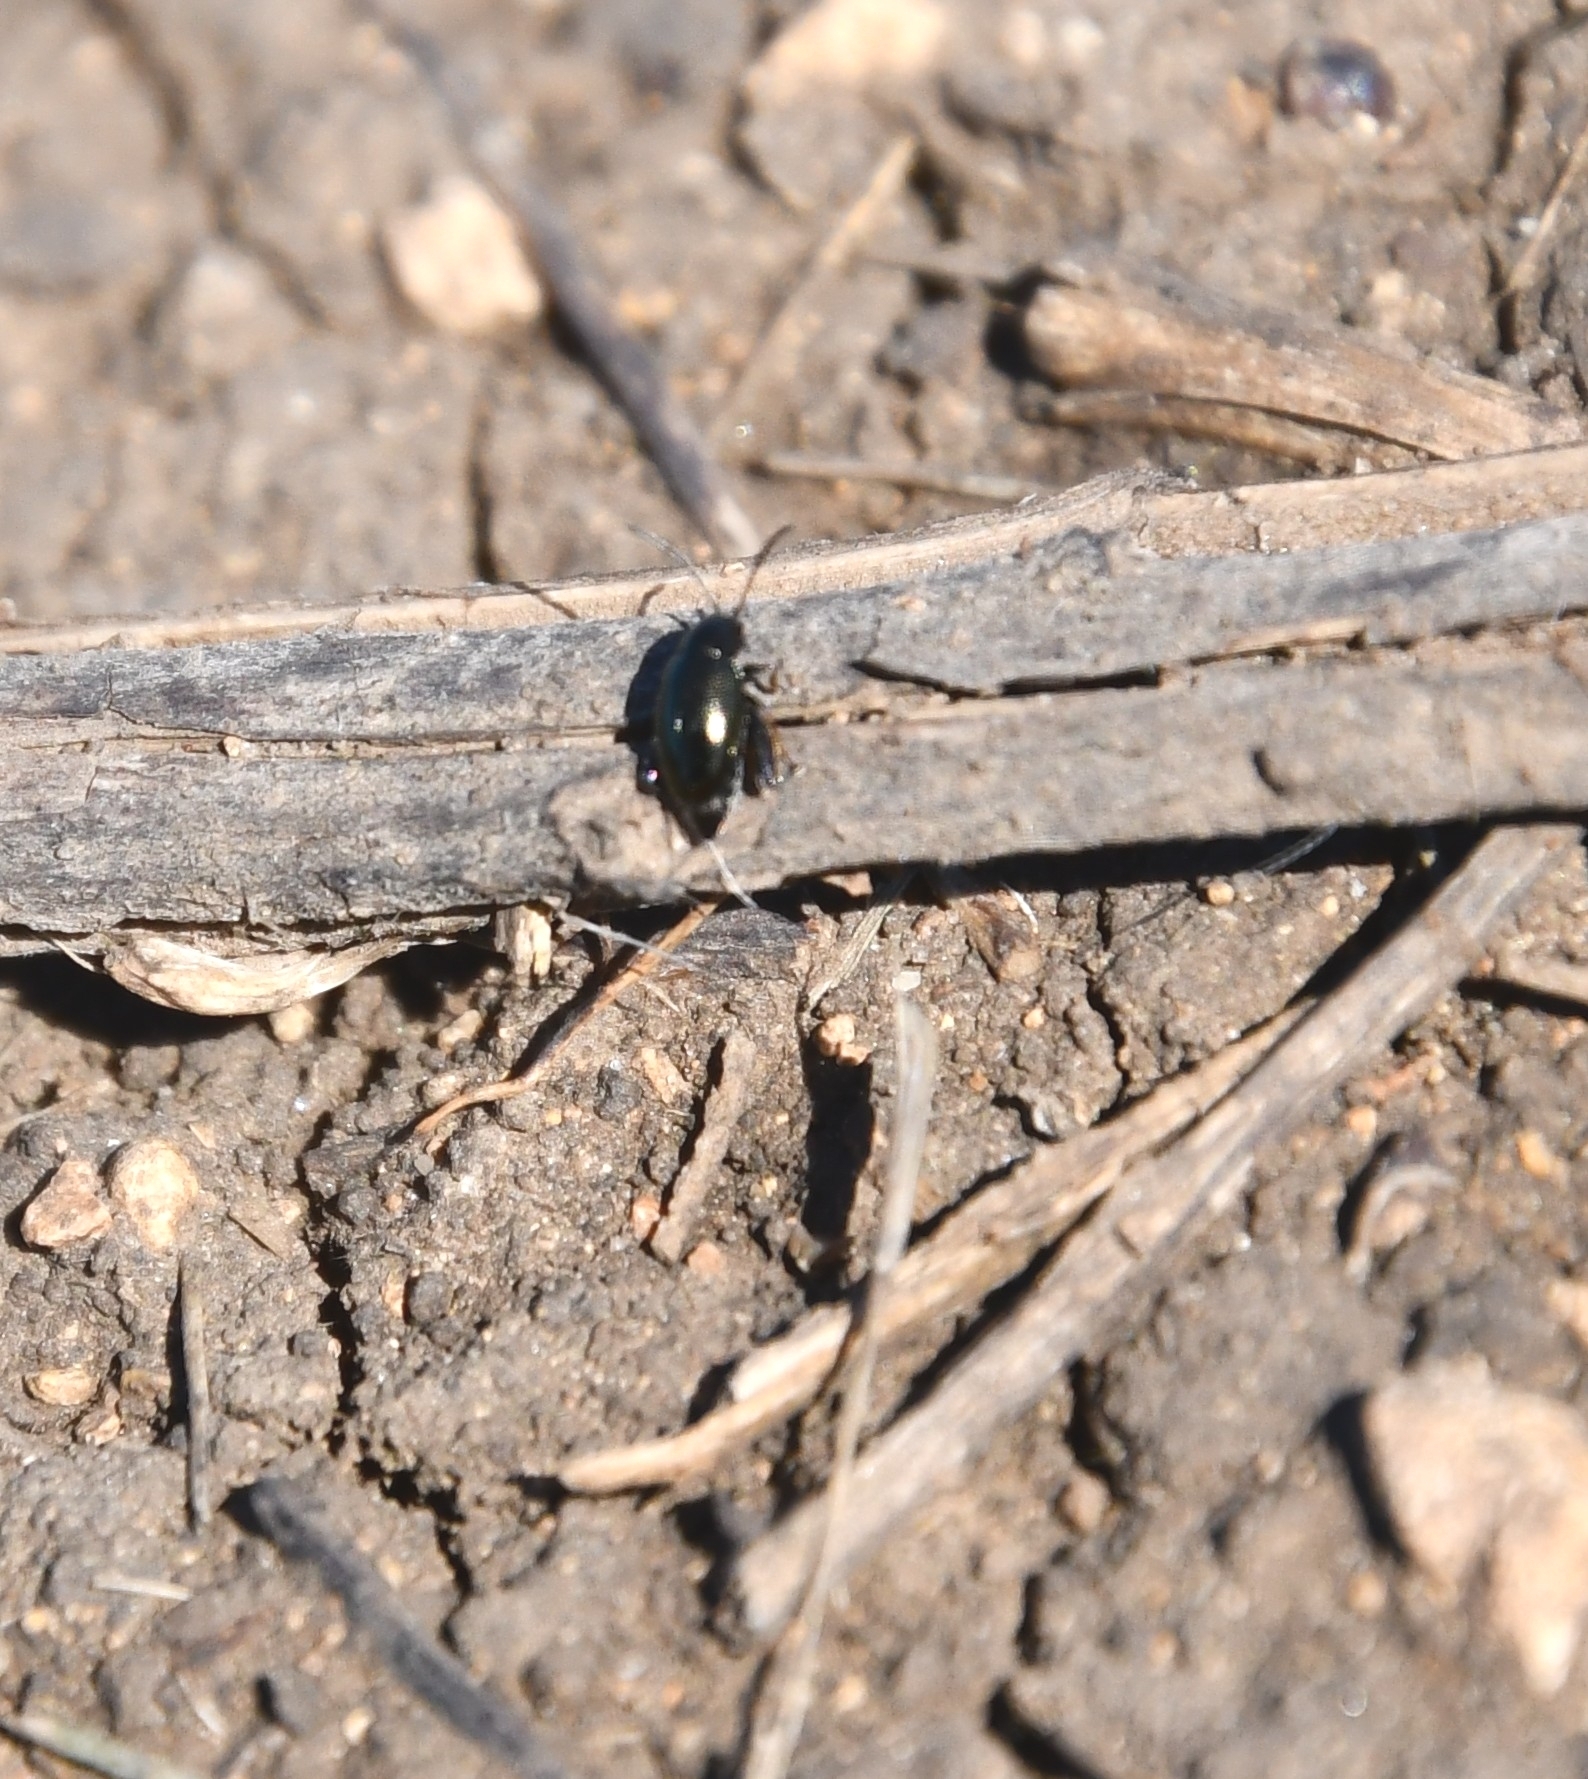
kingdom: Animalia
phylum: Arthropoda
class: Insecta
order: Coleoptera
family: Chrysomelidae
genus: Longitarsus
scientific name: Longitarsus echii
